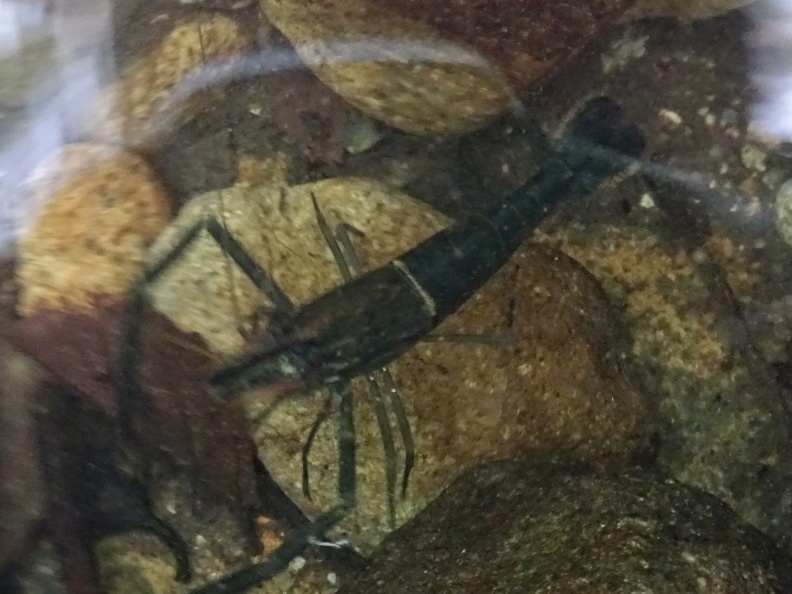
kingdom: Animalia
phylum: Arthropoda
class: Malacostraca
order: Decapoda
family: Palaemonidae
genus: Macrobrachium
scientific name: Macrobrachium laevis
